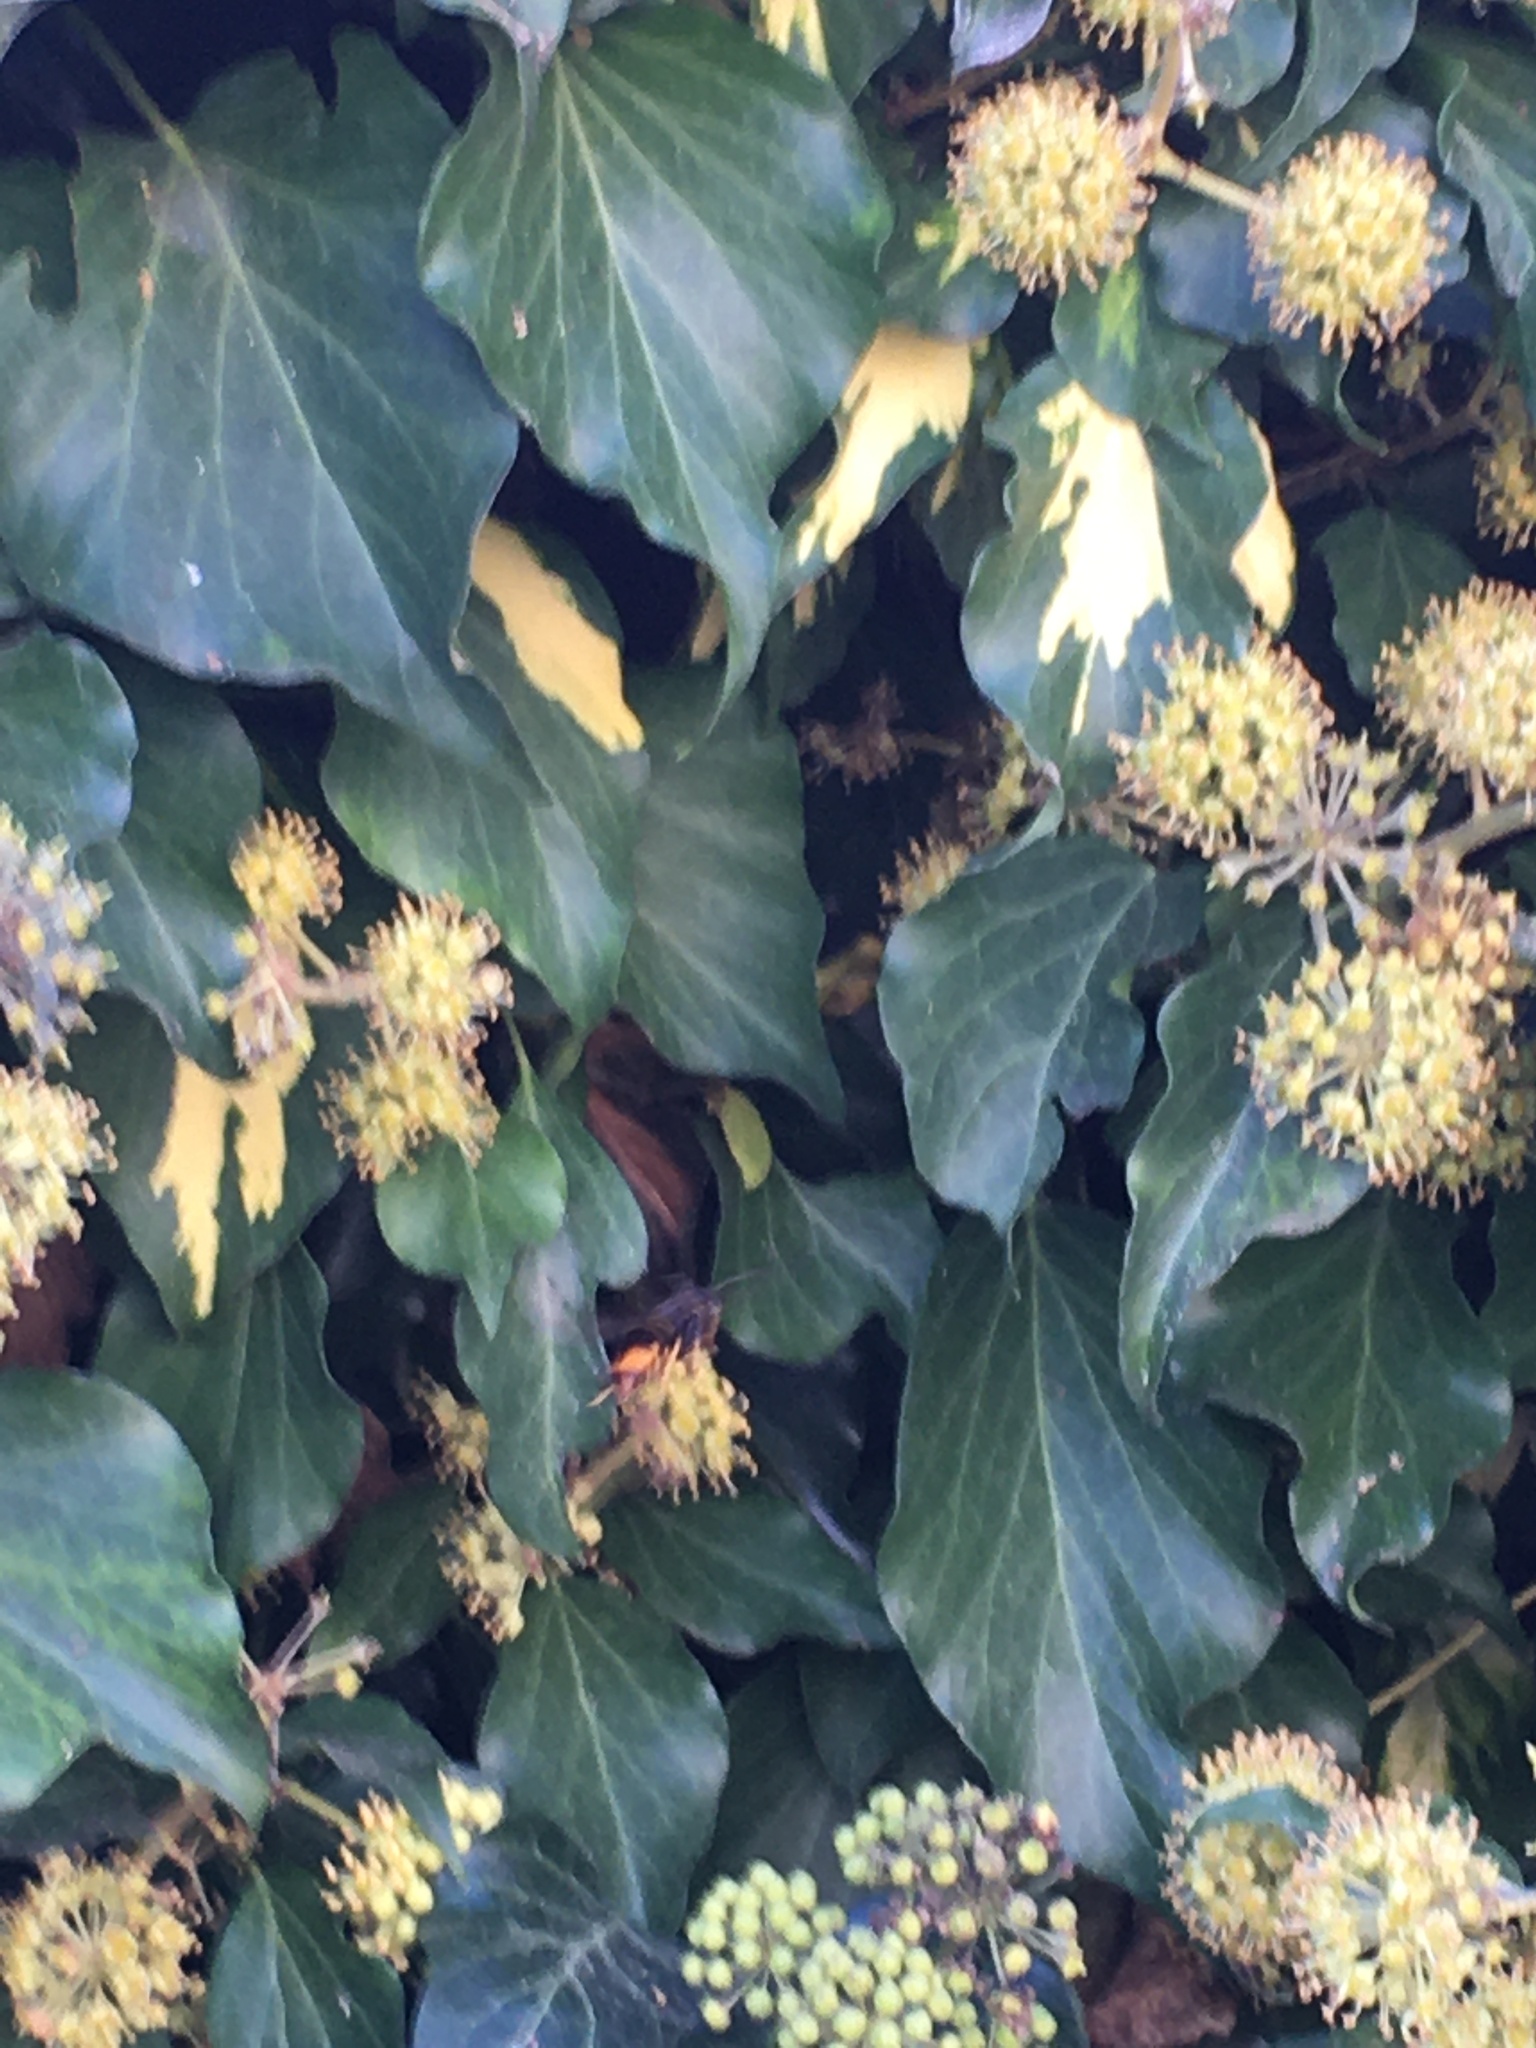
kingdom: Animalia
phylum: Arthropoda
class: Insecta
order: Hymenoptera
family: Vespidae
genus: Vespa
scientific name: Vespa velutina
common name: Asian hornet
